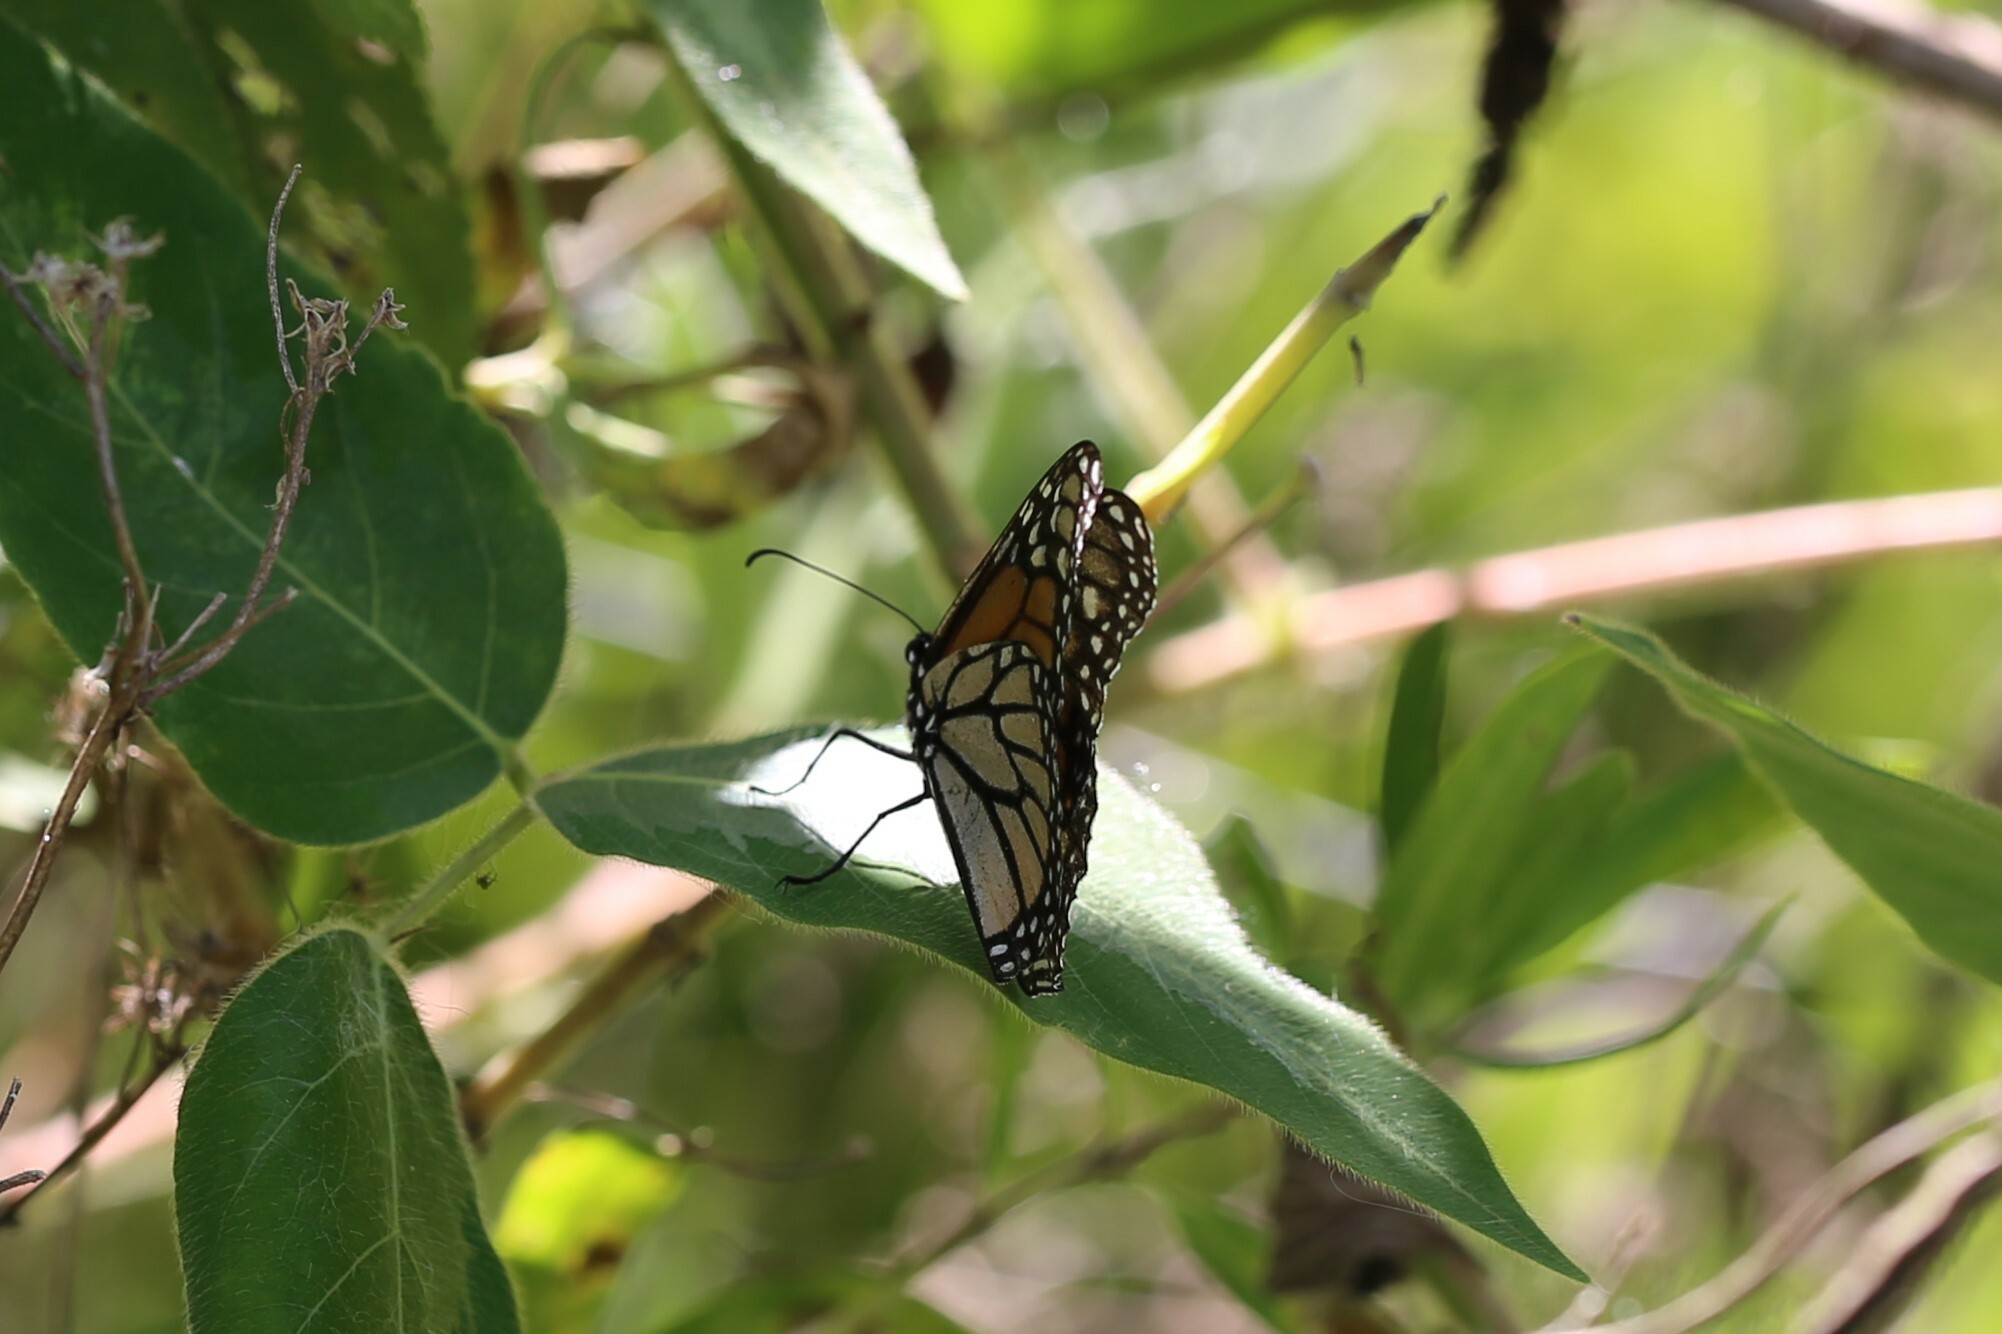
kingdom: Animalia
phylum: Arthropoda
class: Insecta
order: Lepidoptera
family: Nymphalidae
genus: Danaus
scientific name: Danaus plexippus
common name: Monarch
